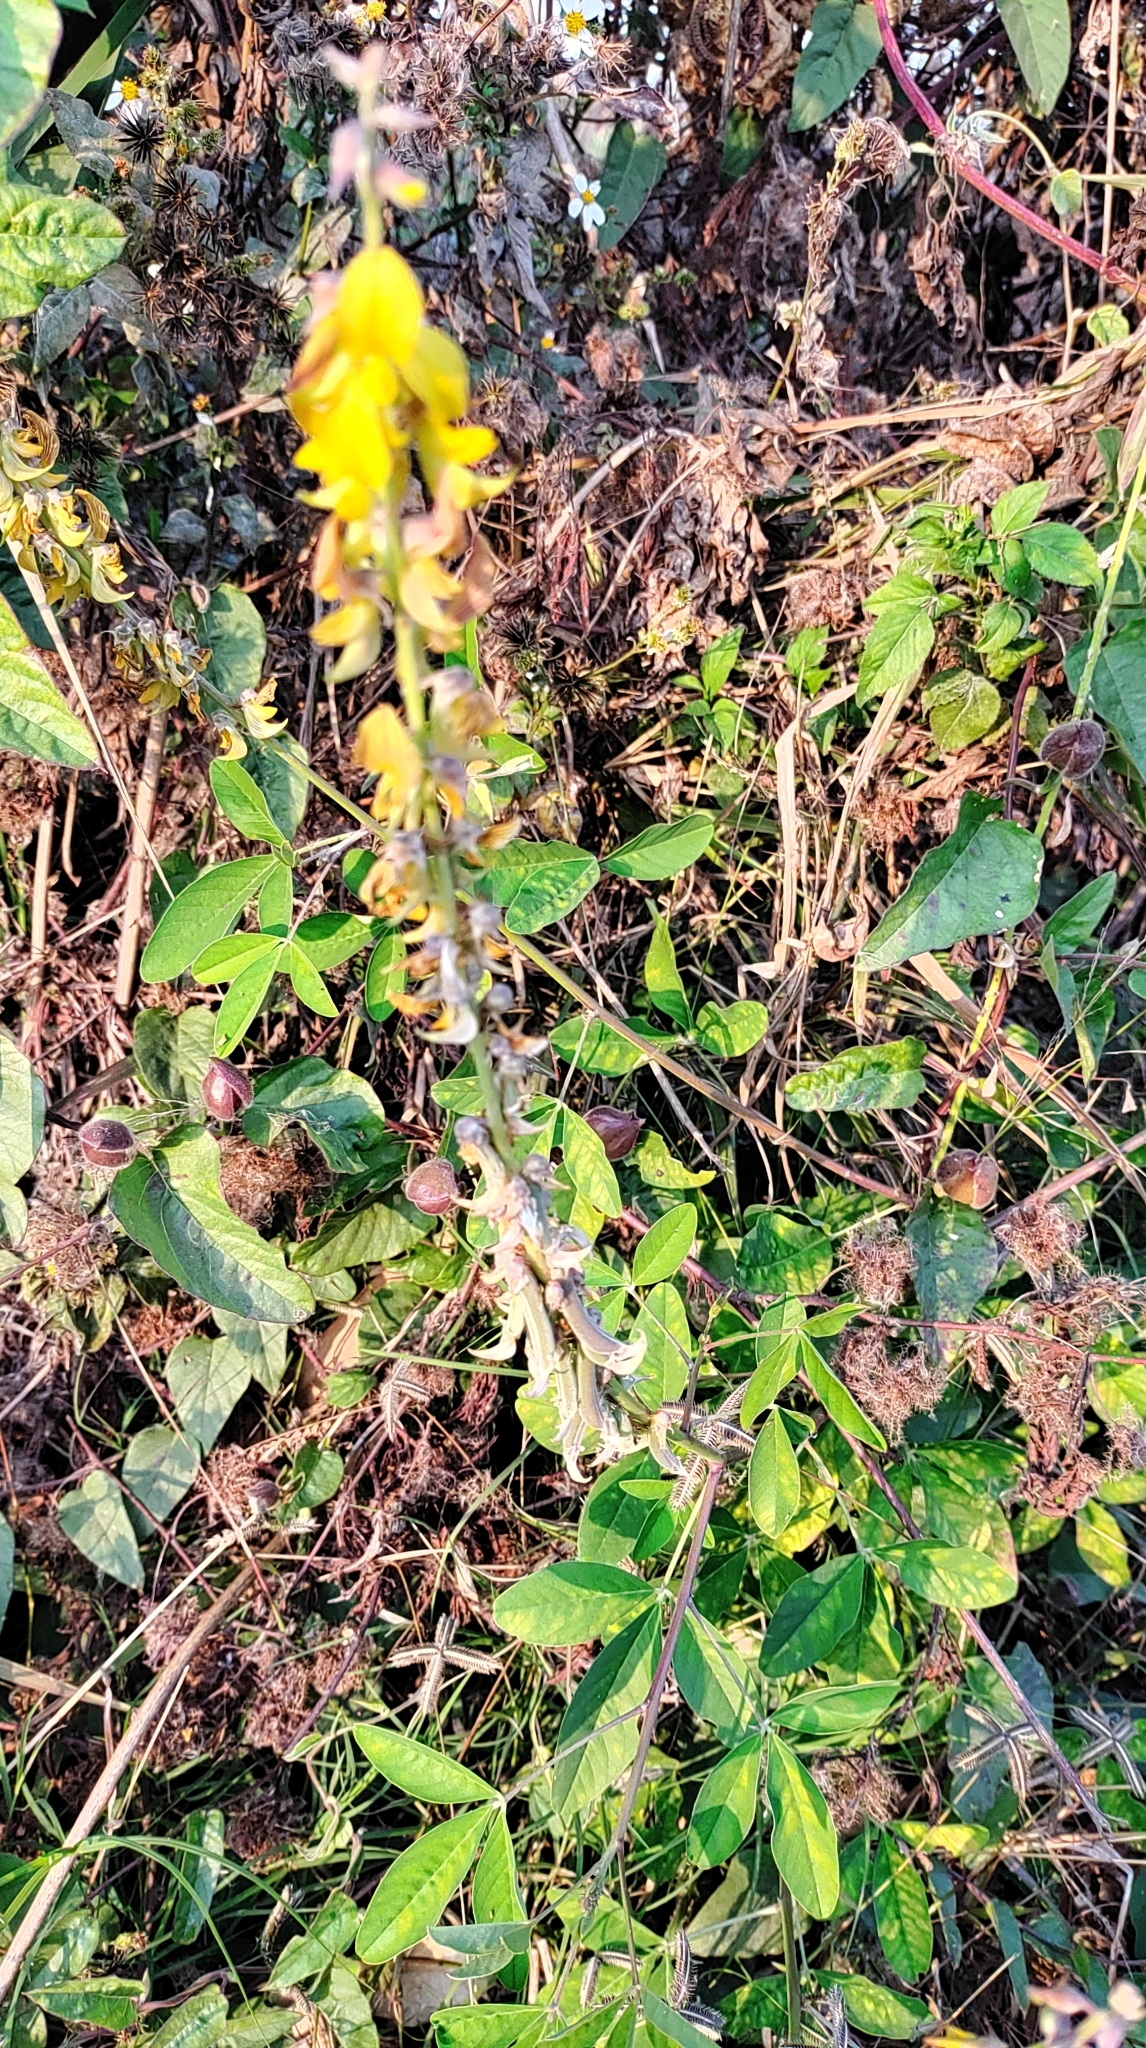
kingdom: Plantae
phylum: Tracheophyta
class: Magnoliopsida
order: Fabales
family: Fabaceae
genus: Crotalaria
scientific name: Crotalaria pallida
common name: Smooth rattlebox
